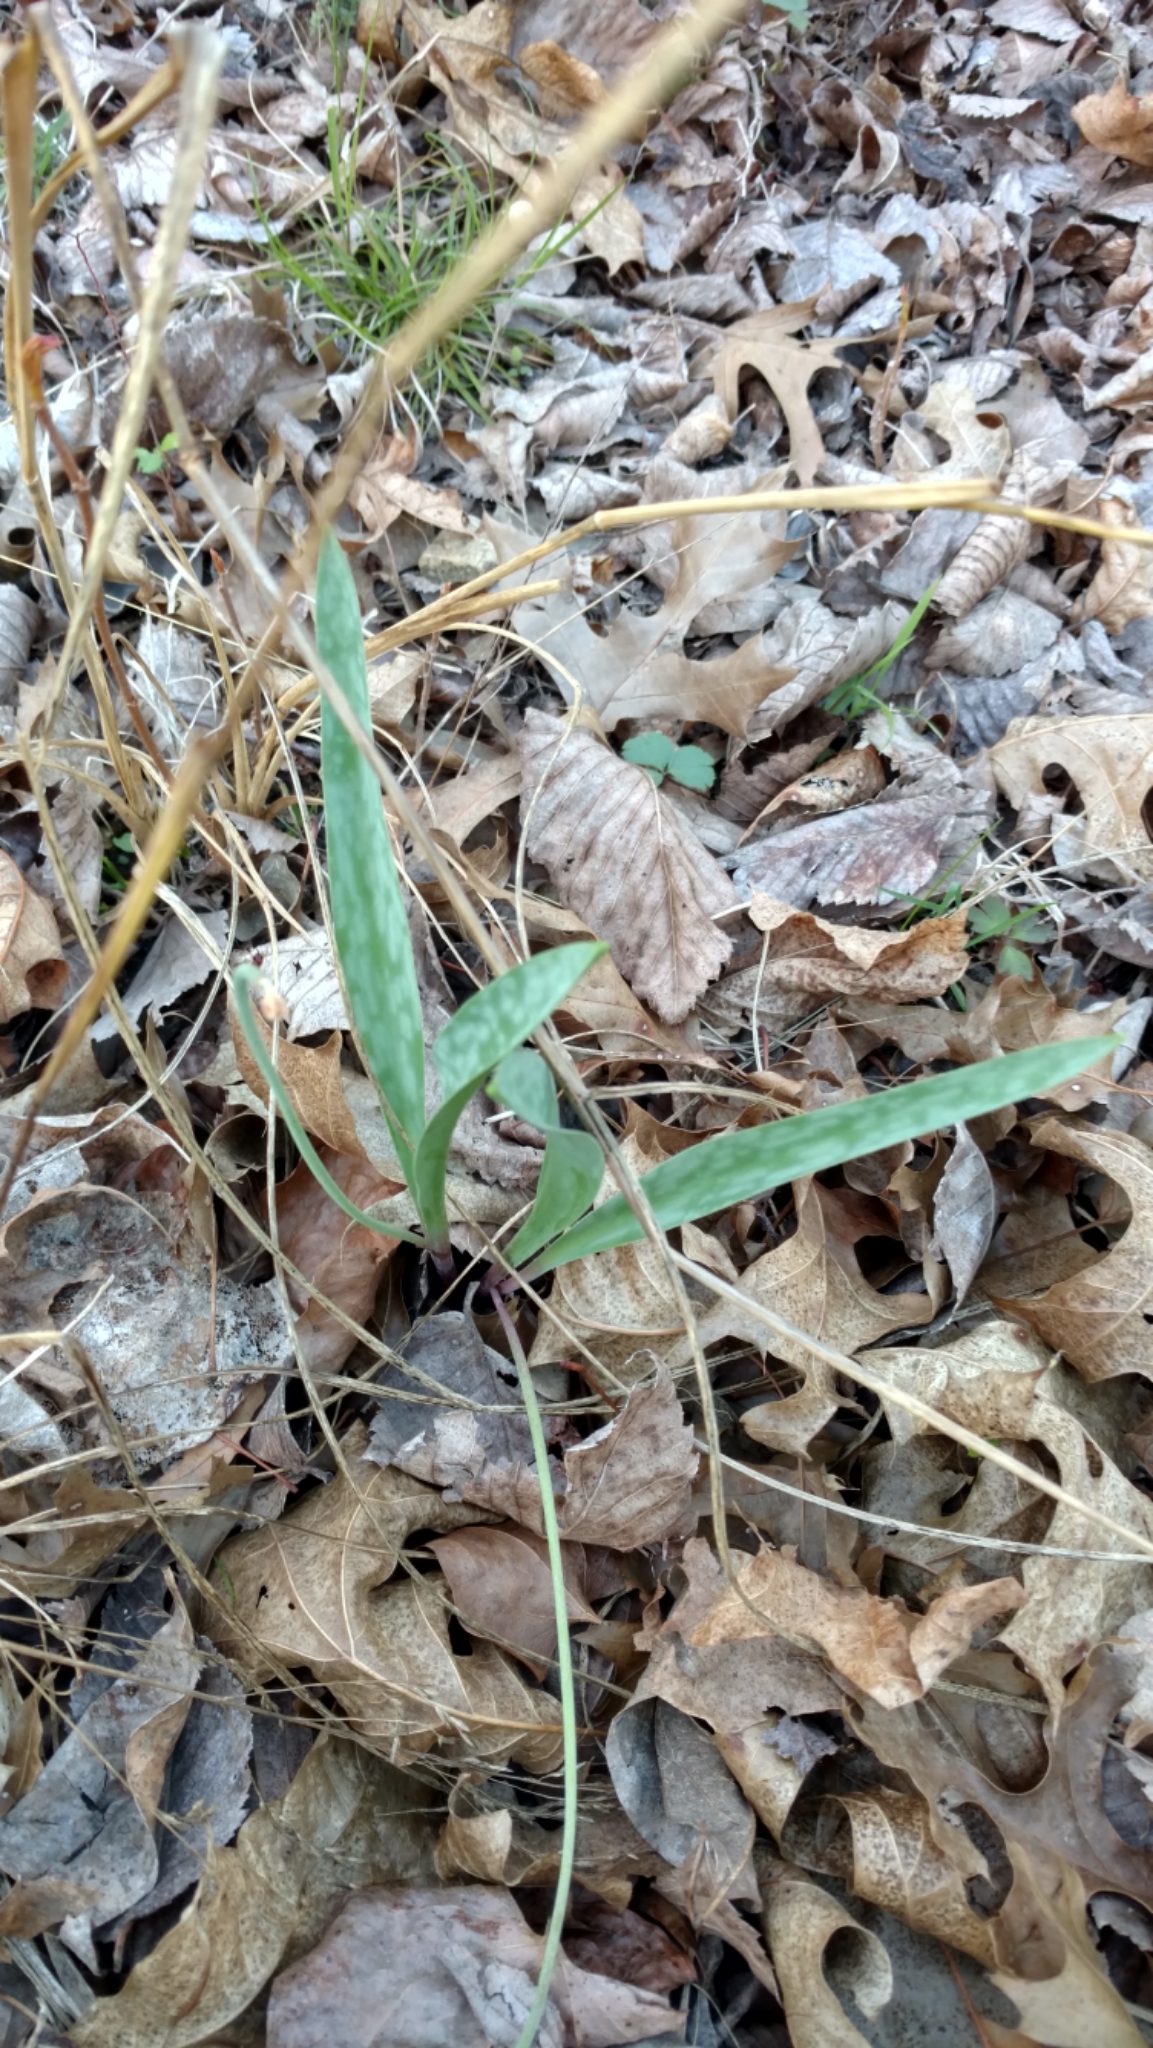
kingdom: Plantae
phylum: Tracheophyta
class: Liliopsida
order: Liliales
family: Liliaceae
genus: Erythronium
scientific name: Erythronium albidum
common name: White trout-lily
